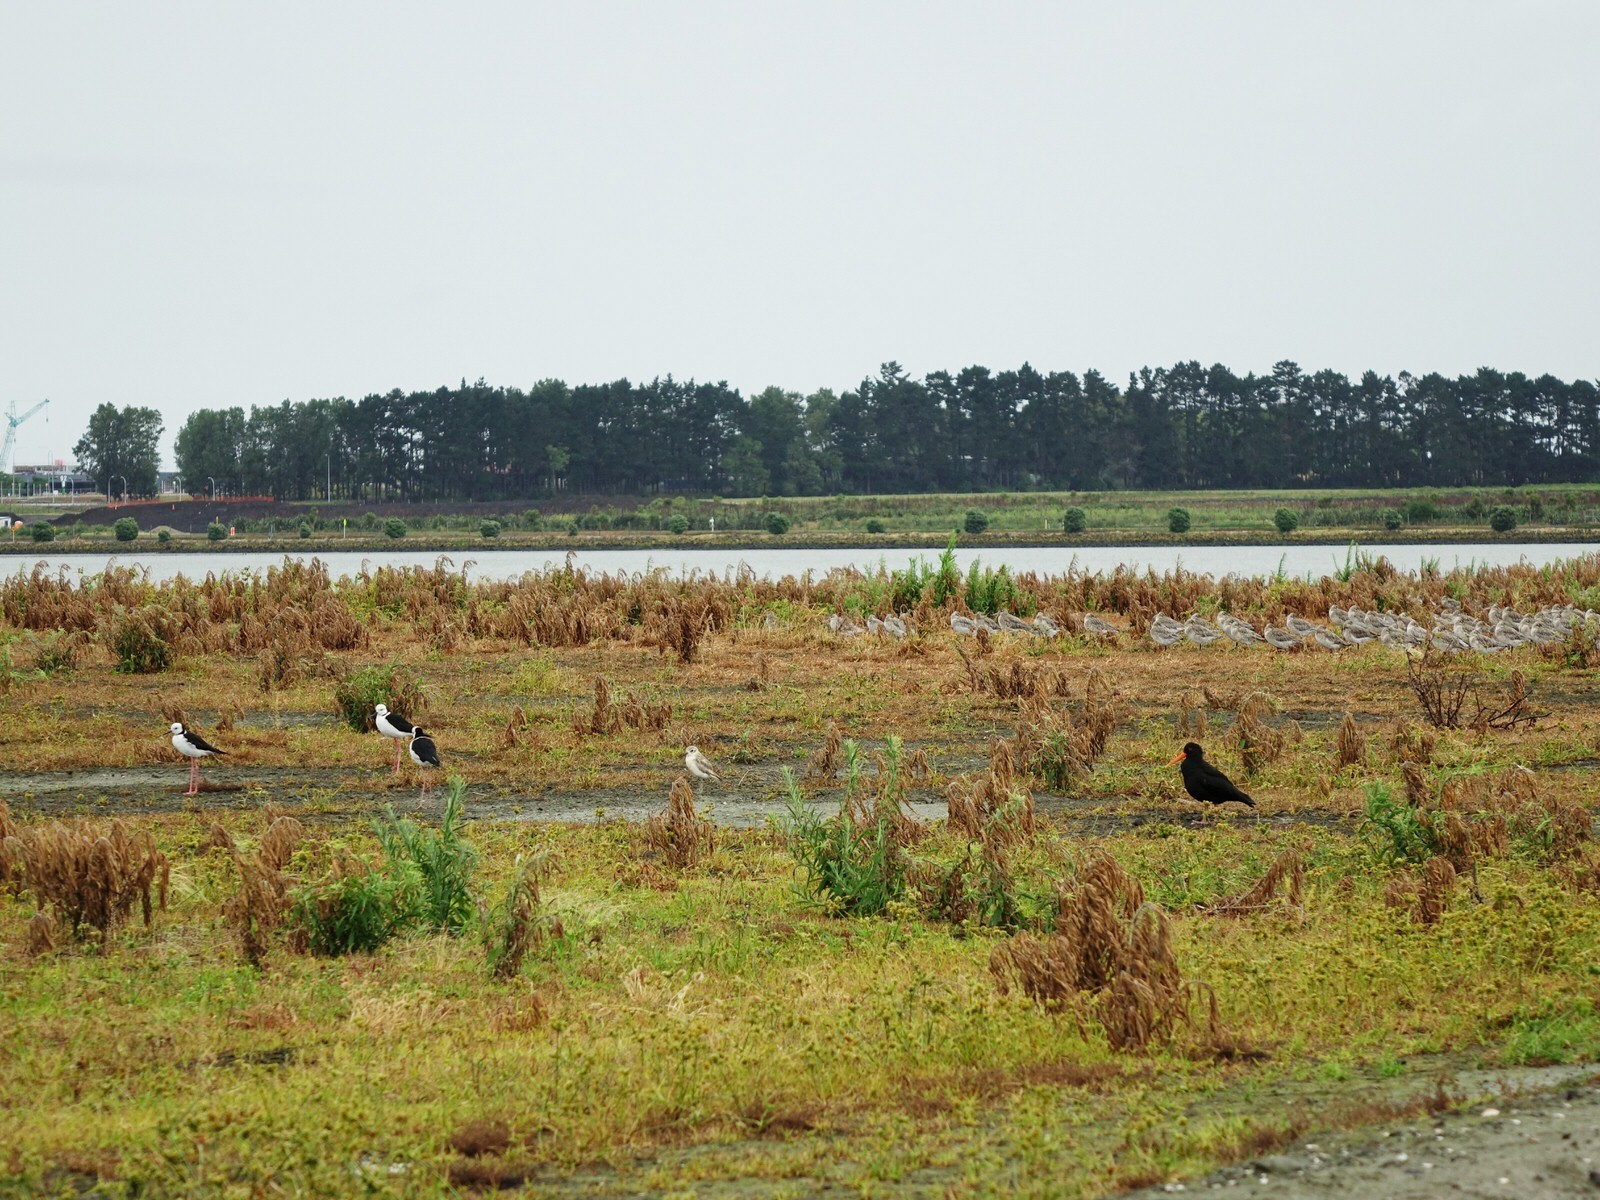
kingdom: Animalia
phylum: Chordata
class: Aves
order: Charadriiformes
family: Charadriidae
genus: Anarhynchus
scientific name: Anarhynchus
